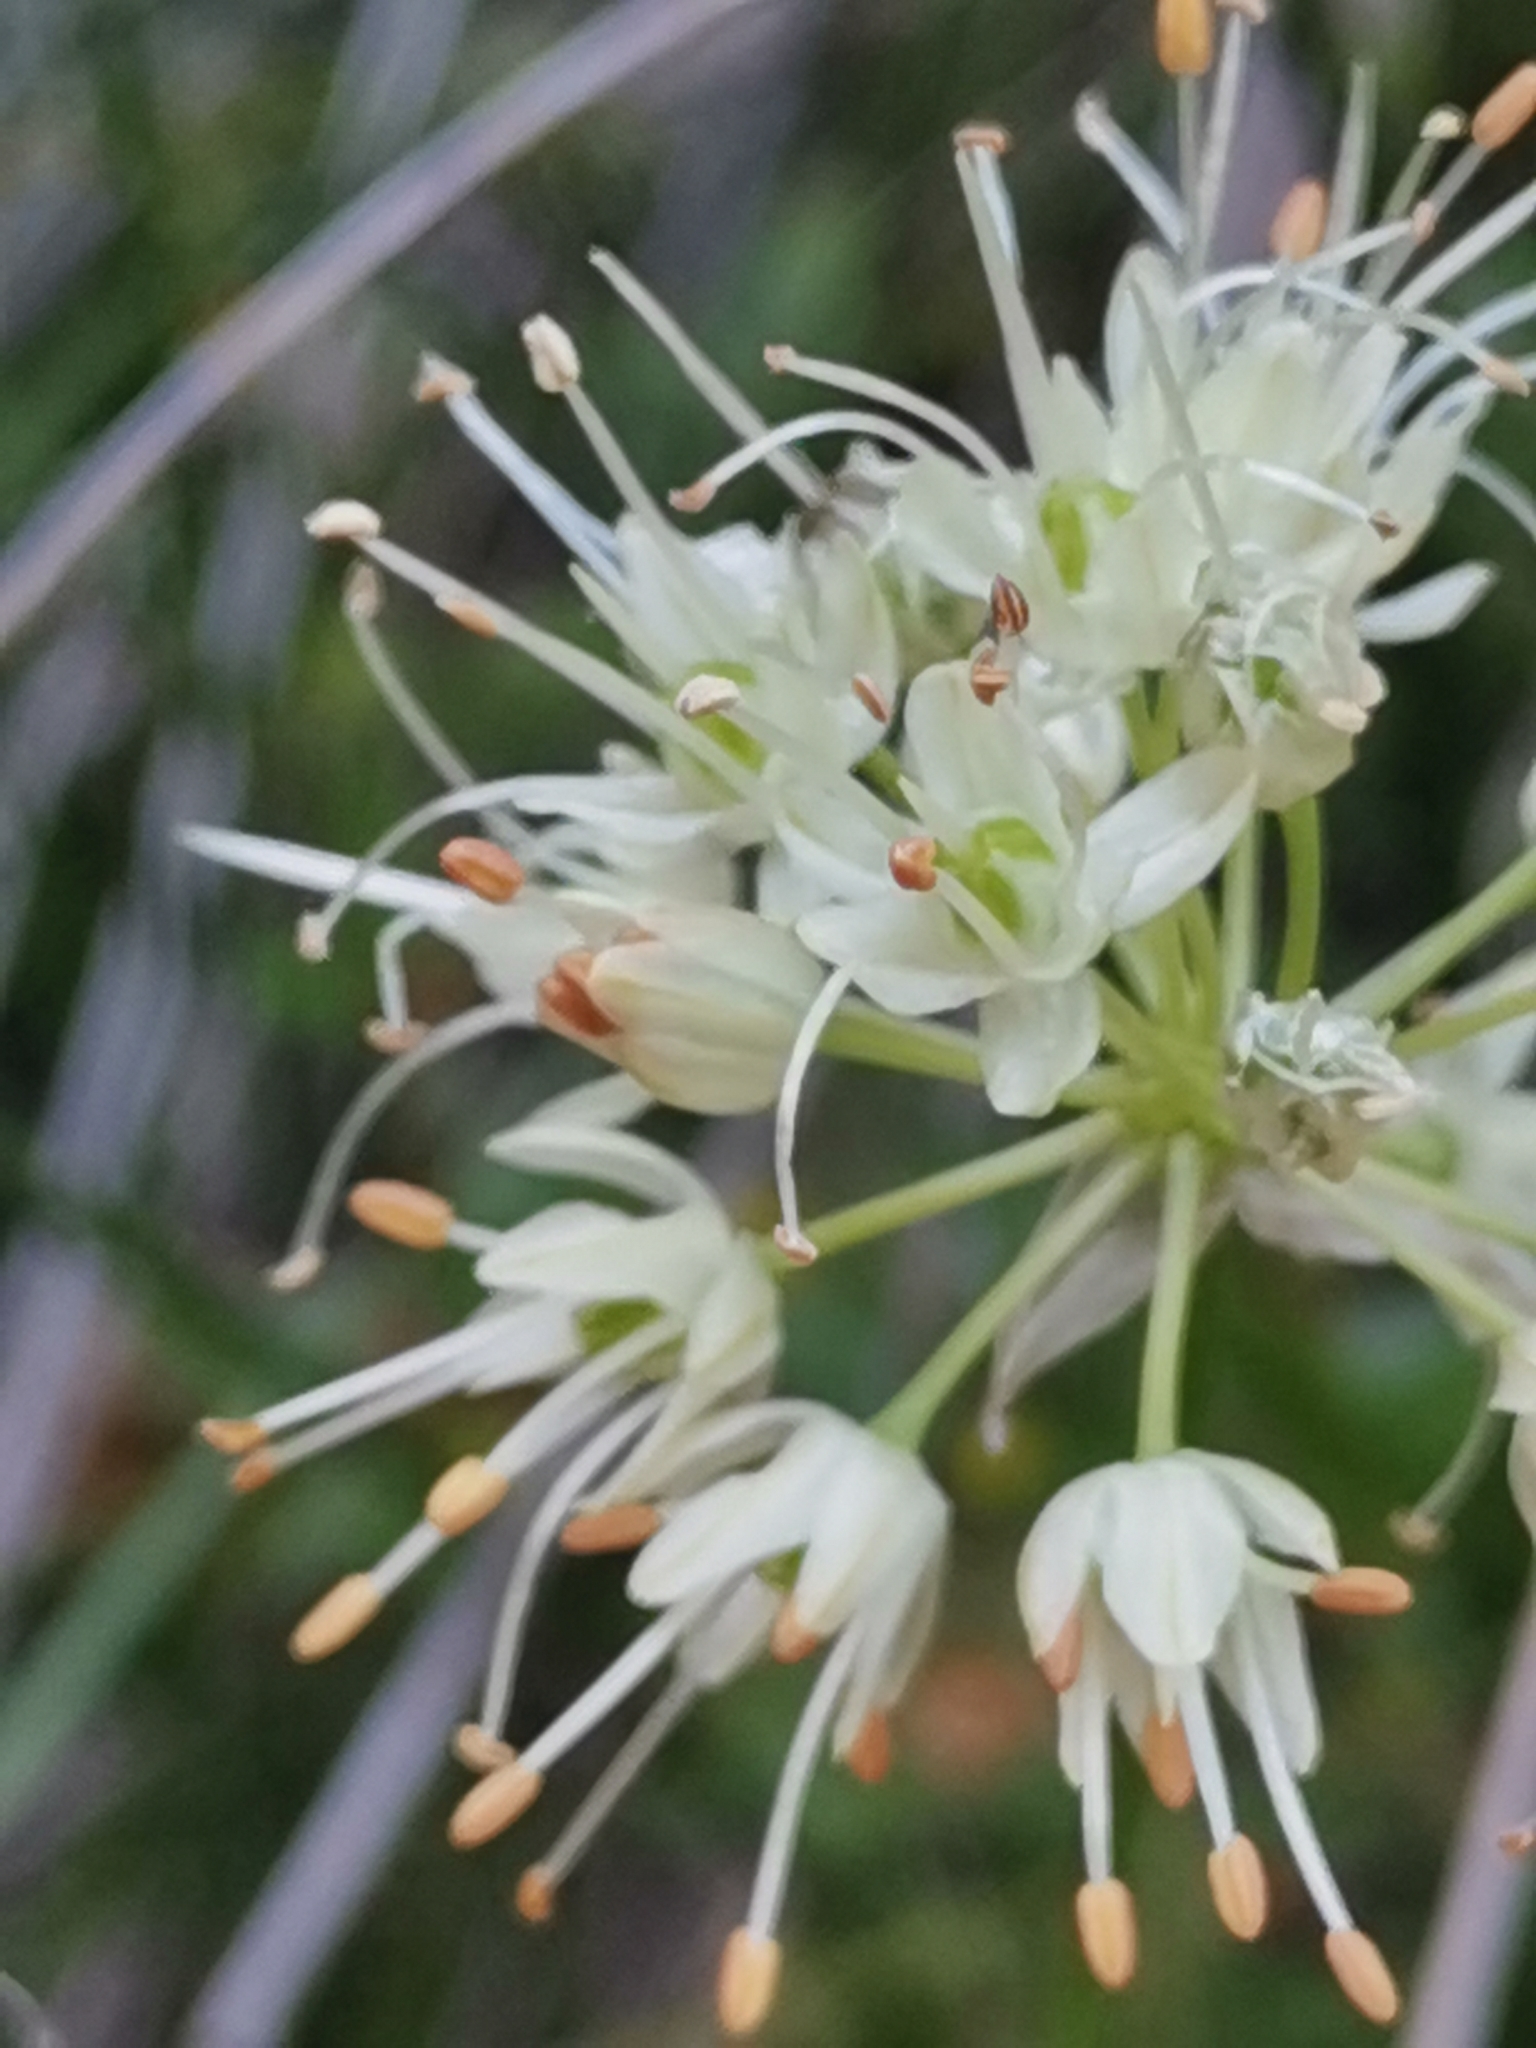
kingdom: Plantae
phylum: Tracheophyta
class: Liliopsida
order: Asparagales
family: Amaryllidaceae
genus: Allium
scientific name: Allium ericetorum
